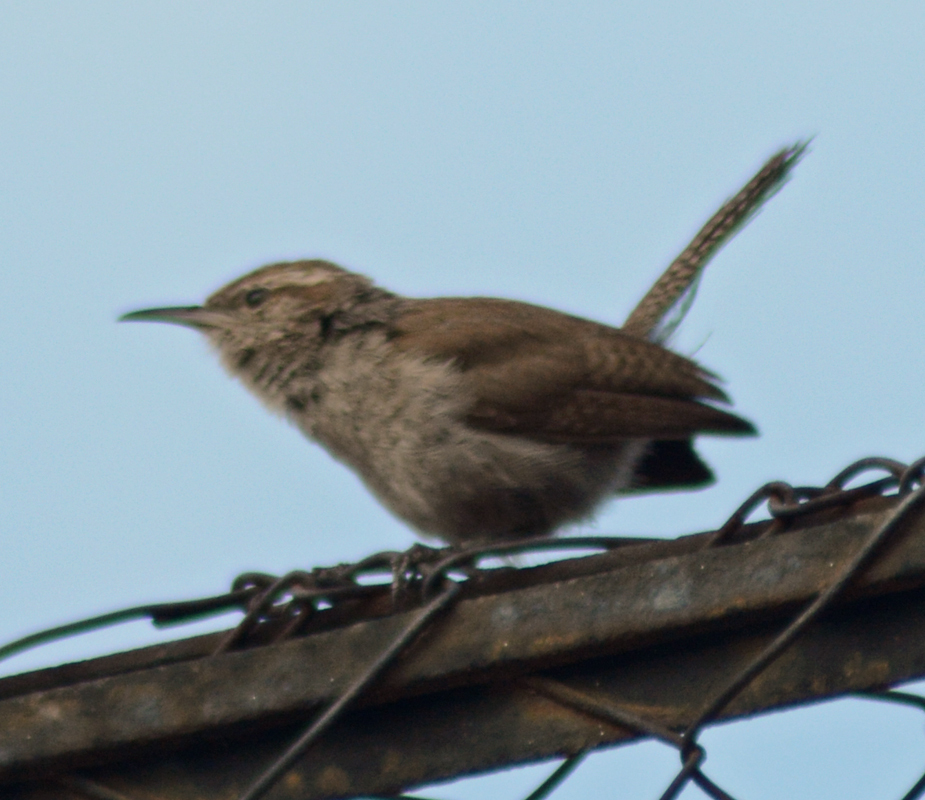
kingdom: Animalia
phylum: Chordata
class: Aves
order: Passeriformes
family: Troglodytidae
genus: Thryomanes
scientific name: Thryomanes bewickii
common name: Bewick's wren
